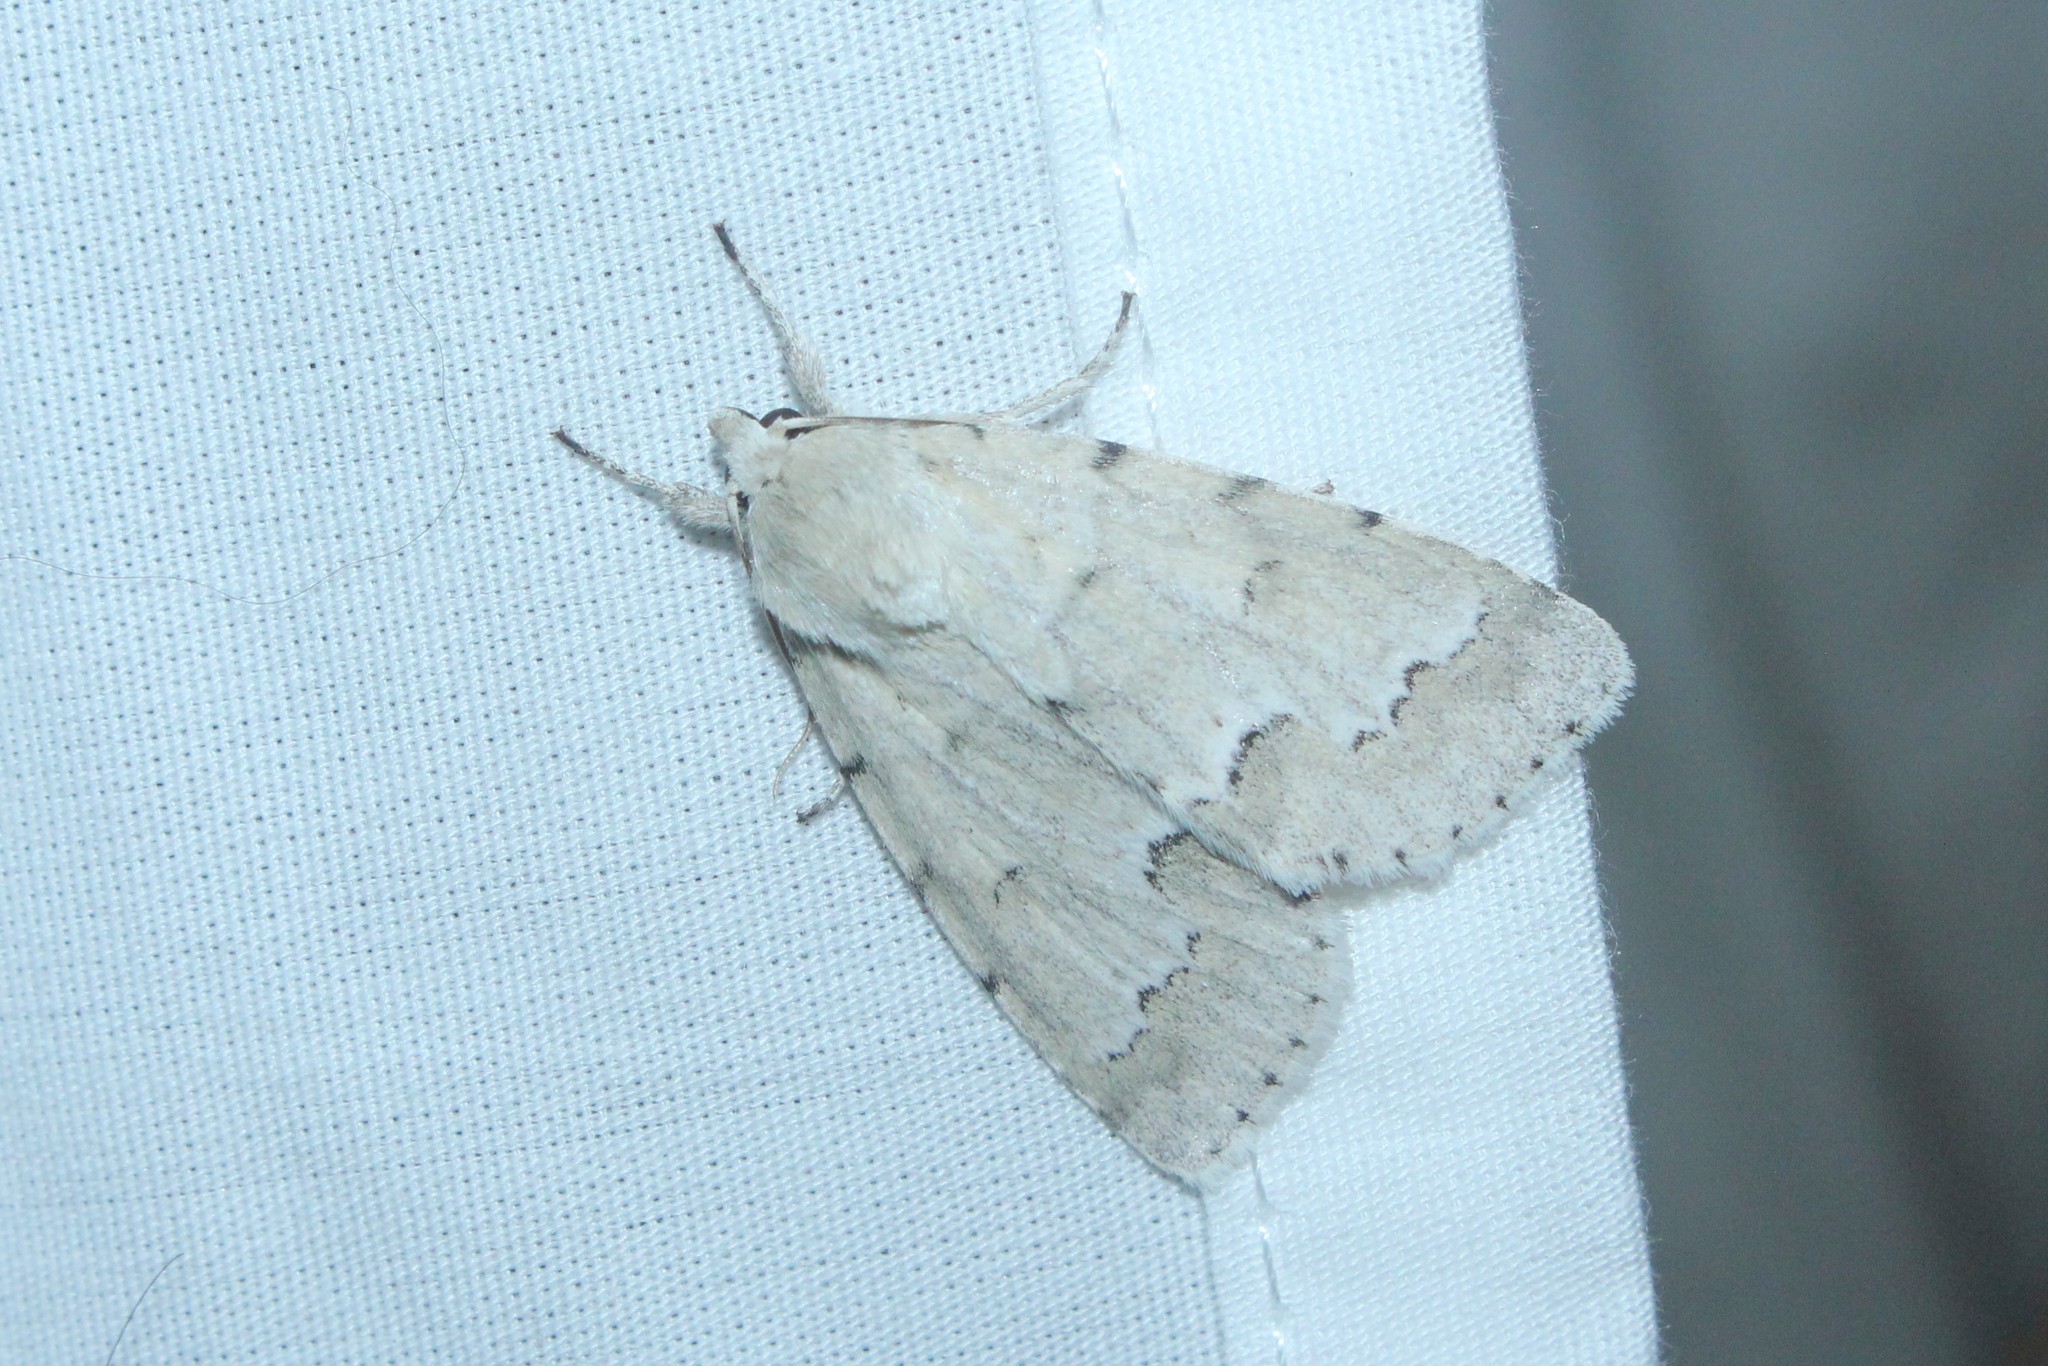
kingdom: Animalia
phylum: Arthropoda
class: Insecta
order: Lepidoptera
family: Noctuidae
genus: Acronicta
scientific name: Acronicta innotata
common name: Unmarked dagger
